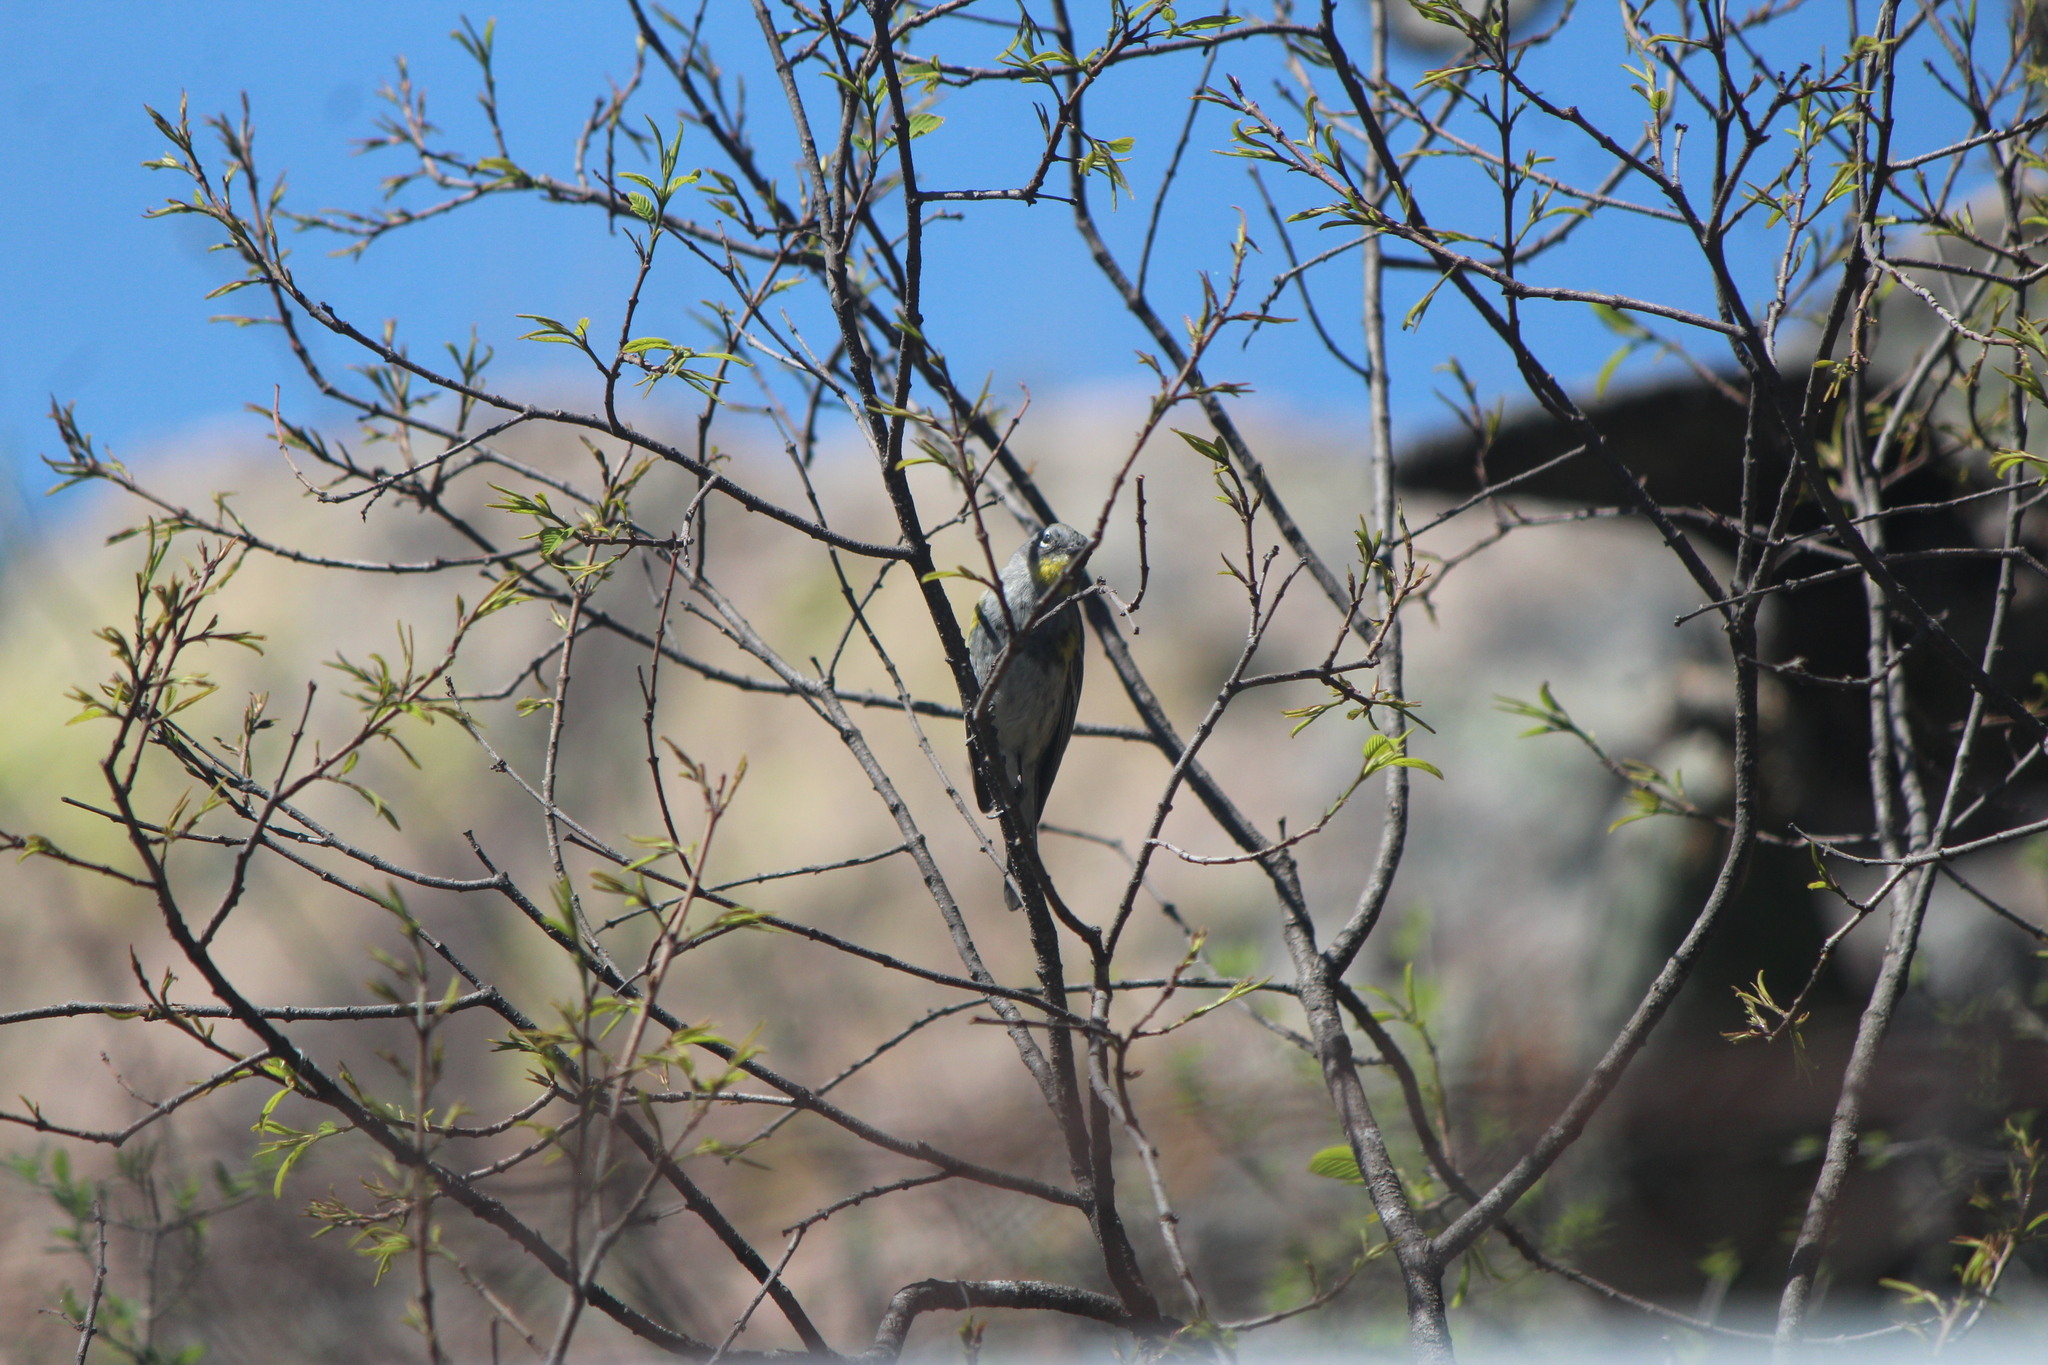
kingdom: Animalia
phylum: Chordata
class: Aves
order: Passeriformes
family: Parulidae
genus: Setophaga
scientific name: Setophaga coronata
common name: Myrtle warbler
